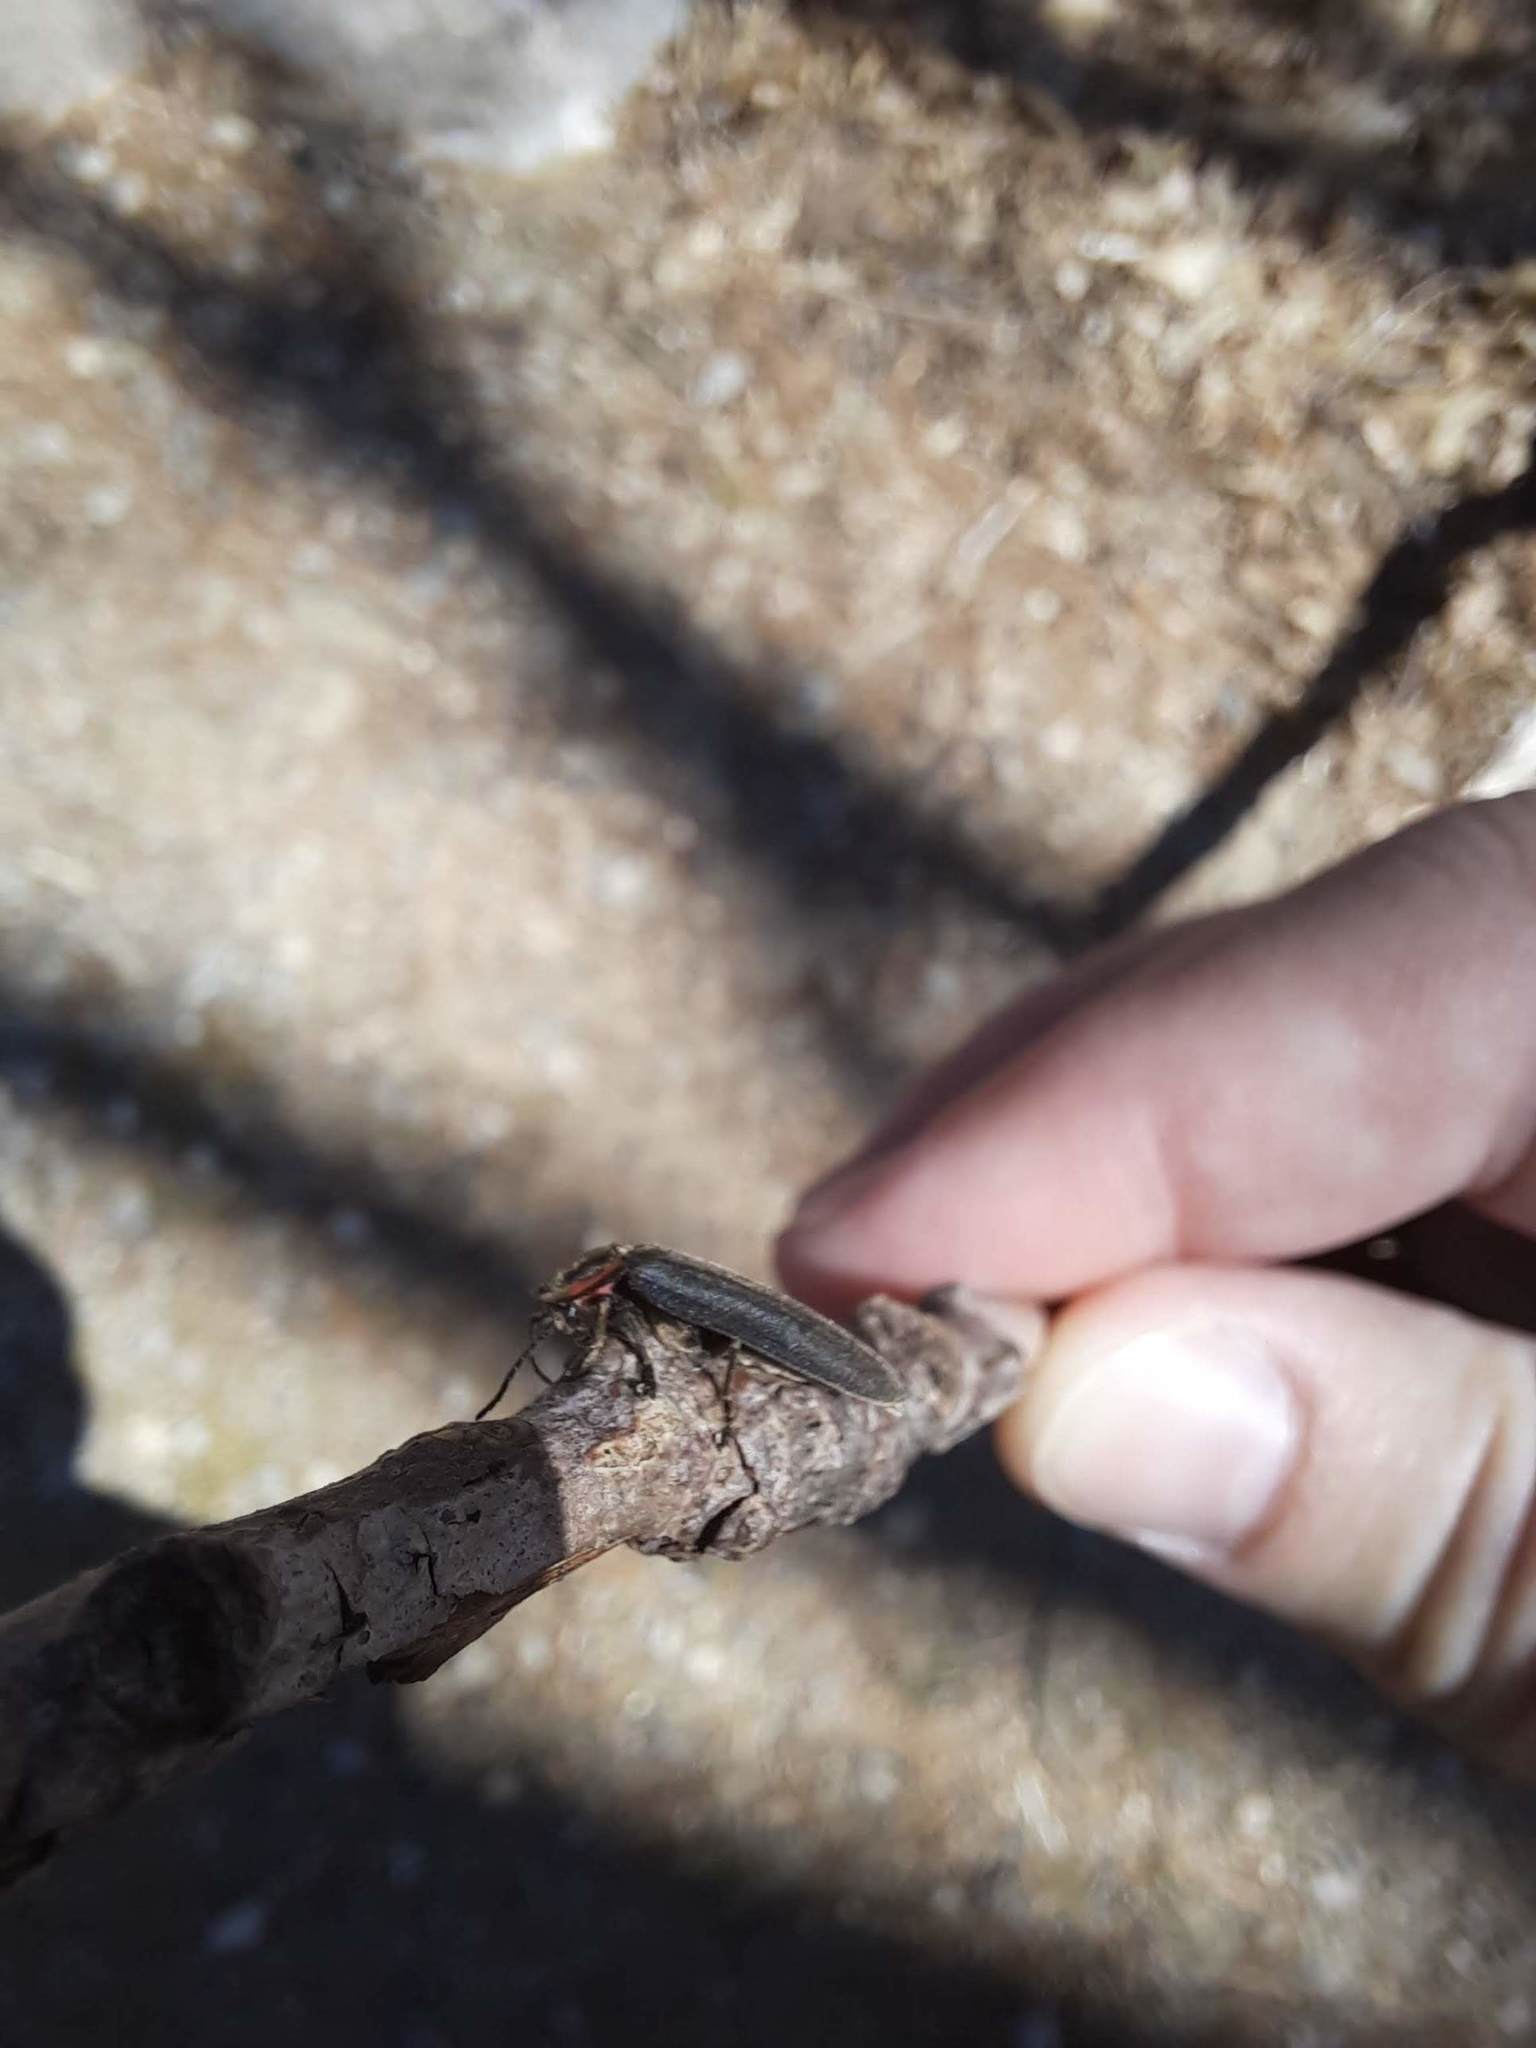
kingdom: Animalia
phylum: Arthropoda
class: Insecta
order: Coleoptera
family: Lampyridae
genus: Photinus
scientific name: Photinus corrusca
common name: Winter firefly
